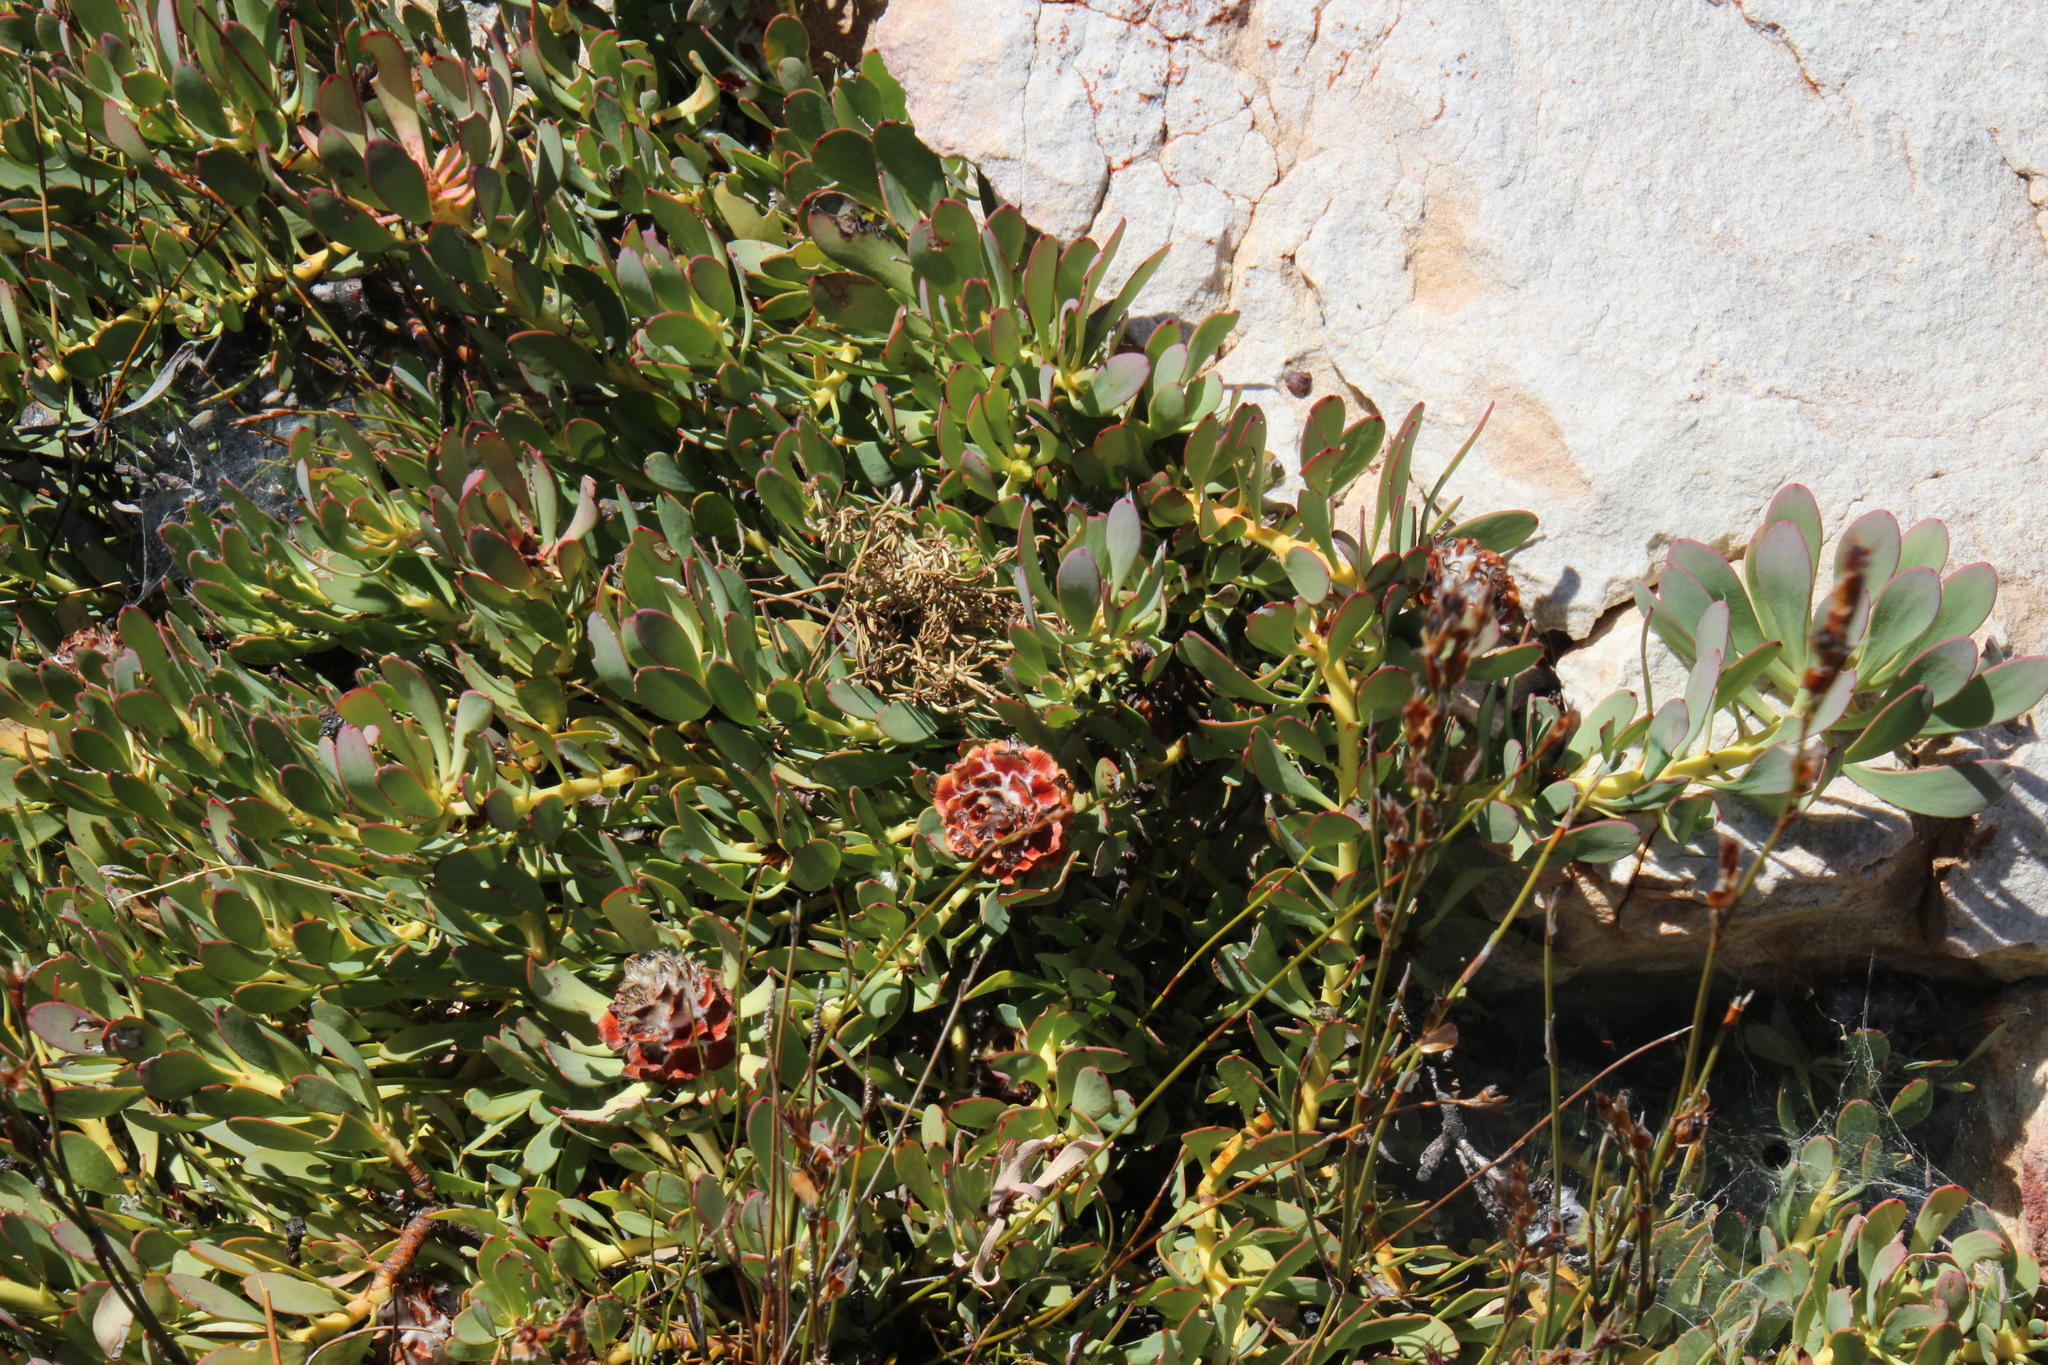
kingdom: Plantae
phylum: Tracheophyta
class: Magnoliopsida
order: Proteales
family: Proteaceae
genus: Leucadendron
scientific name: Leucadendron arcuatum
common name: Red-edge conebush
